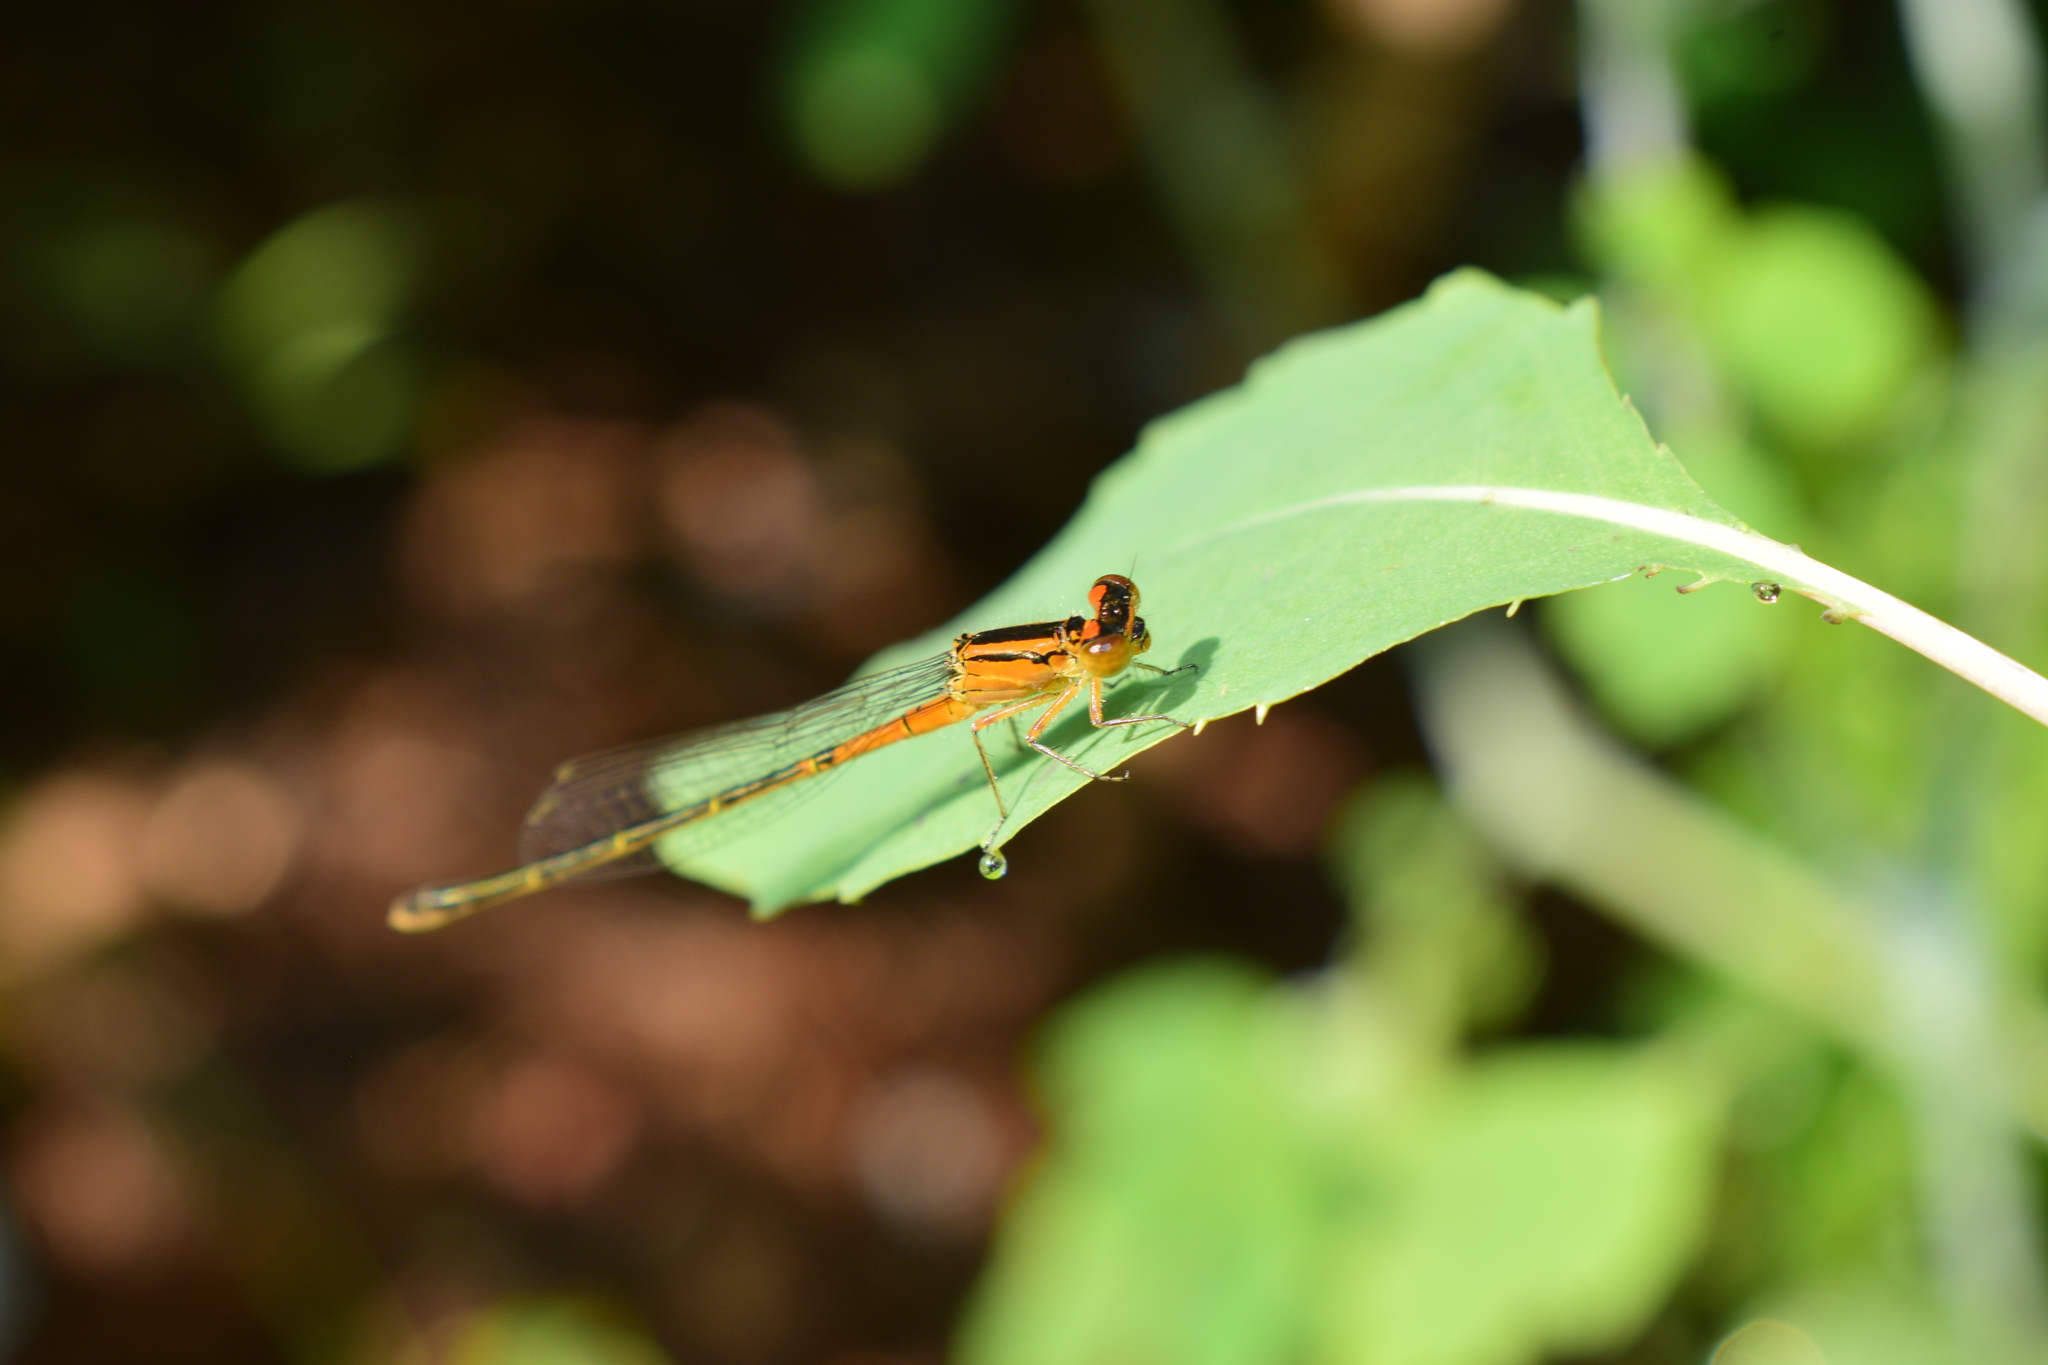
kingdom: Animalia
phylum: Arthropoda
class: Insecta
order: Odonata
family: Coenagrionidae
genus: Ischnura
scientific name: Ischnura verticalis
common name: Eastern forktail
